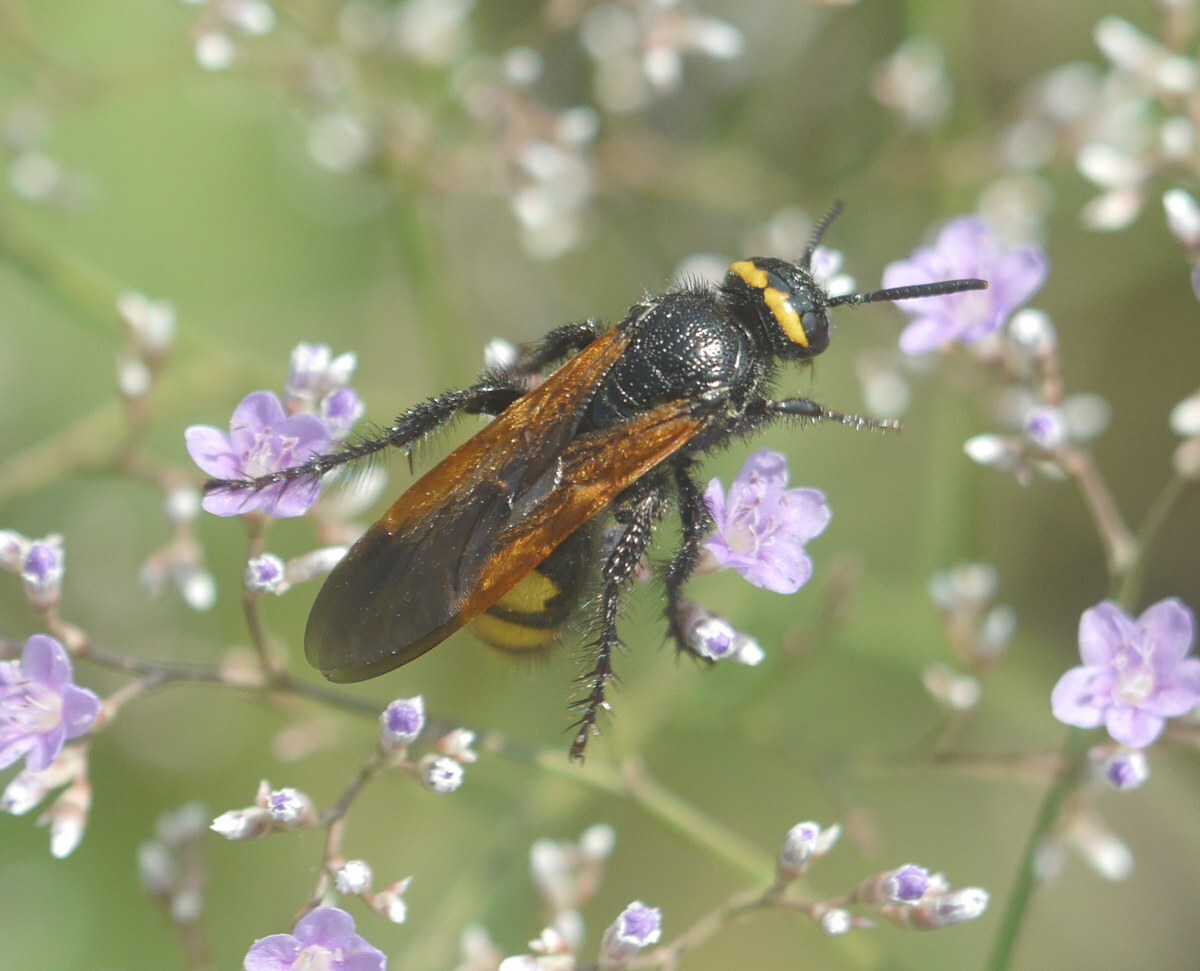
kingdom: Animalia
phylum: Arthropoda
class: Insecta
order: Hymenoptera
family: Scoliidae
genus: Scolia
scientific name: Scolia fuciformis
